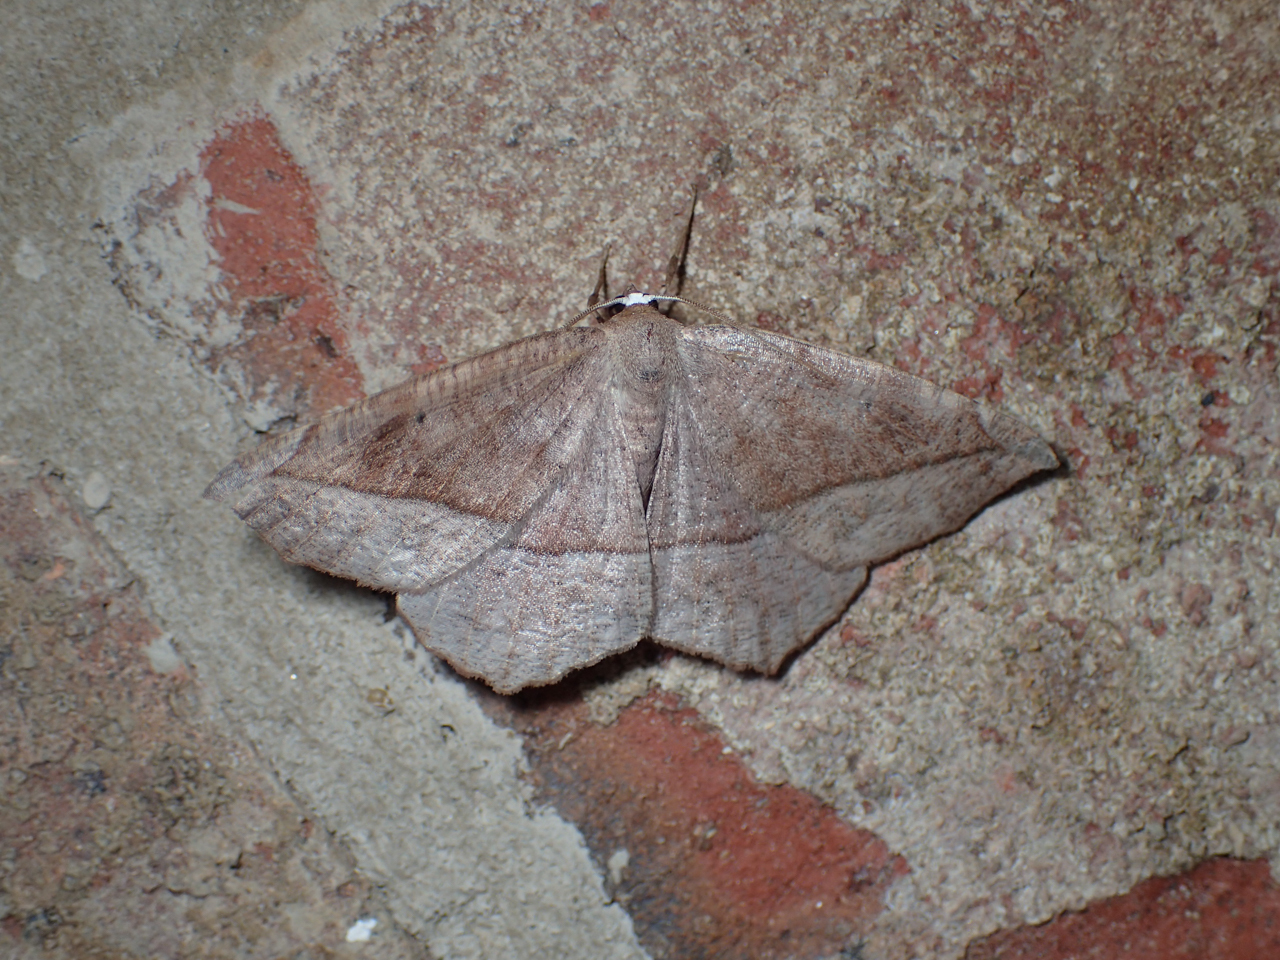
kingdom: Animalia
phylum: Arthropoda
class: Insecta
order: Lepidoptera
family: Geometridae
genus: Eutrapela
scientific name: Eutrapela clemataria
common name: Curved-toothed geometer
